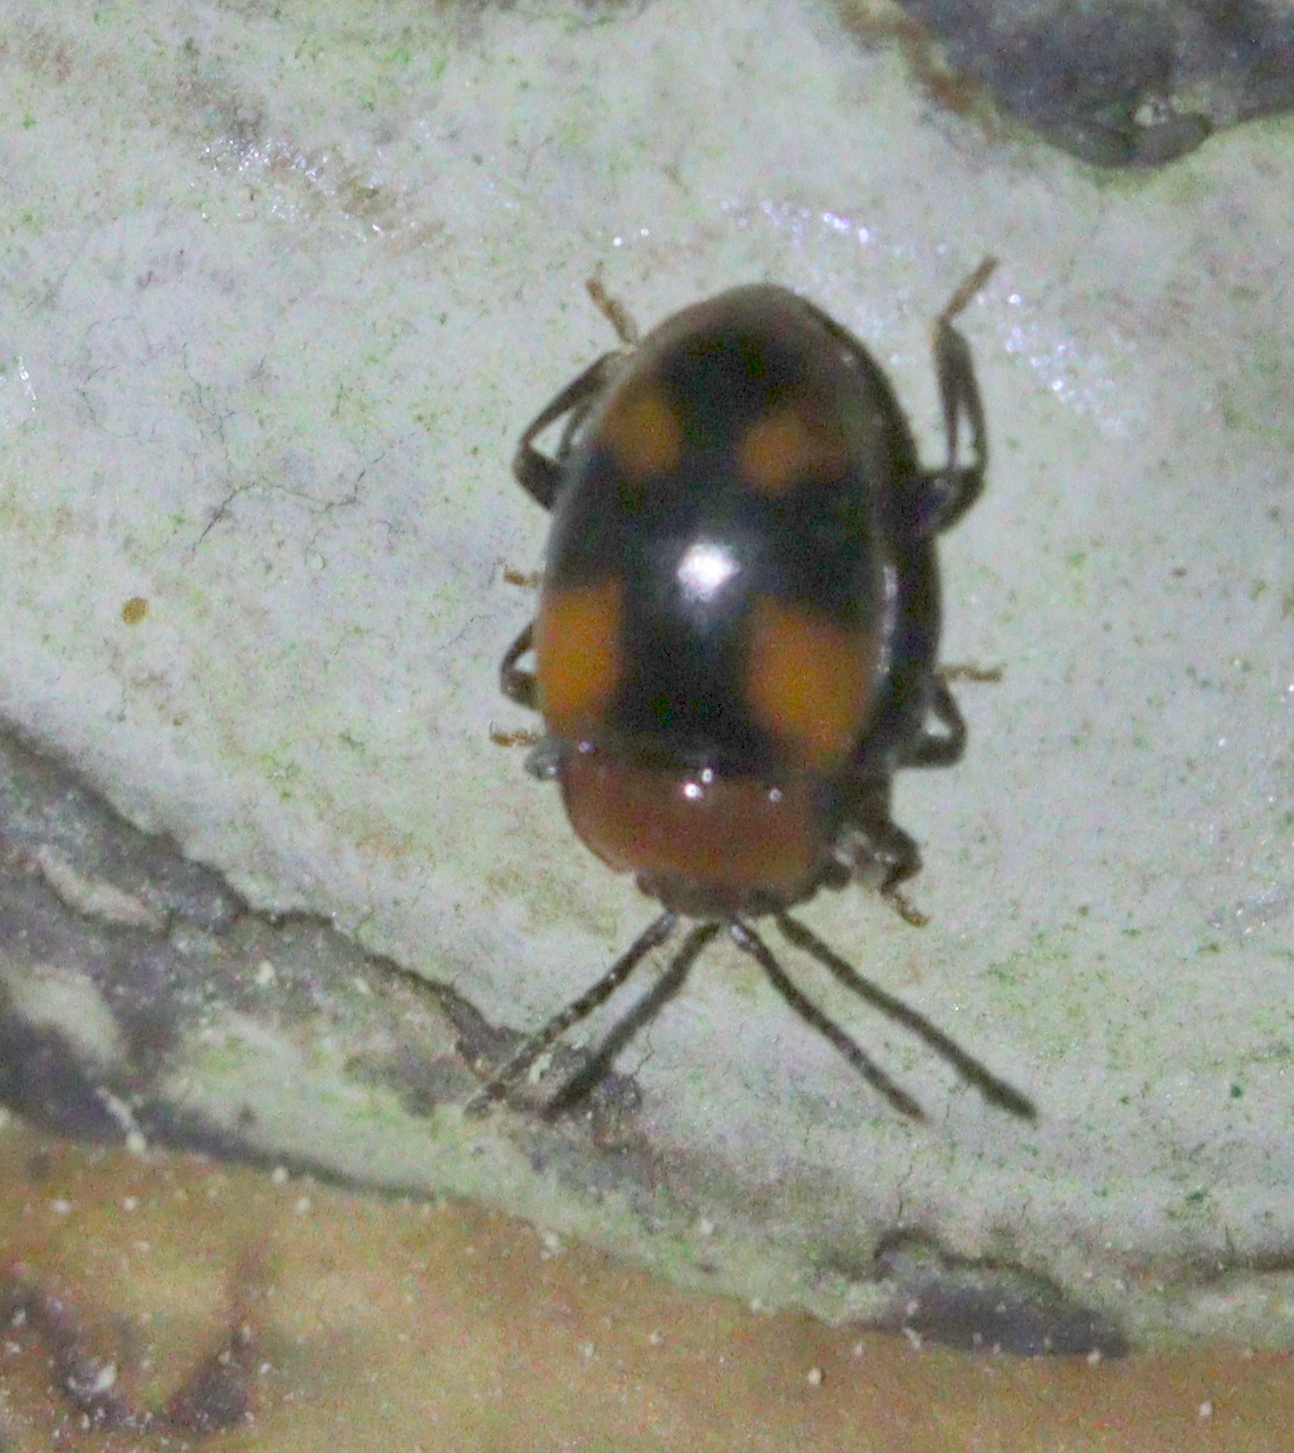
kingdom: Animalia
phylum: Arthropoda
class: Insecta
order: Coleoptera
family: Endomychidae
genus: Mycetina
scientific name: Mycetina cruciata
